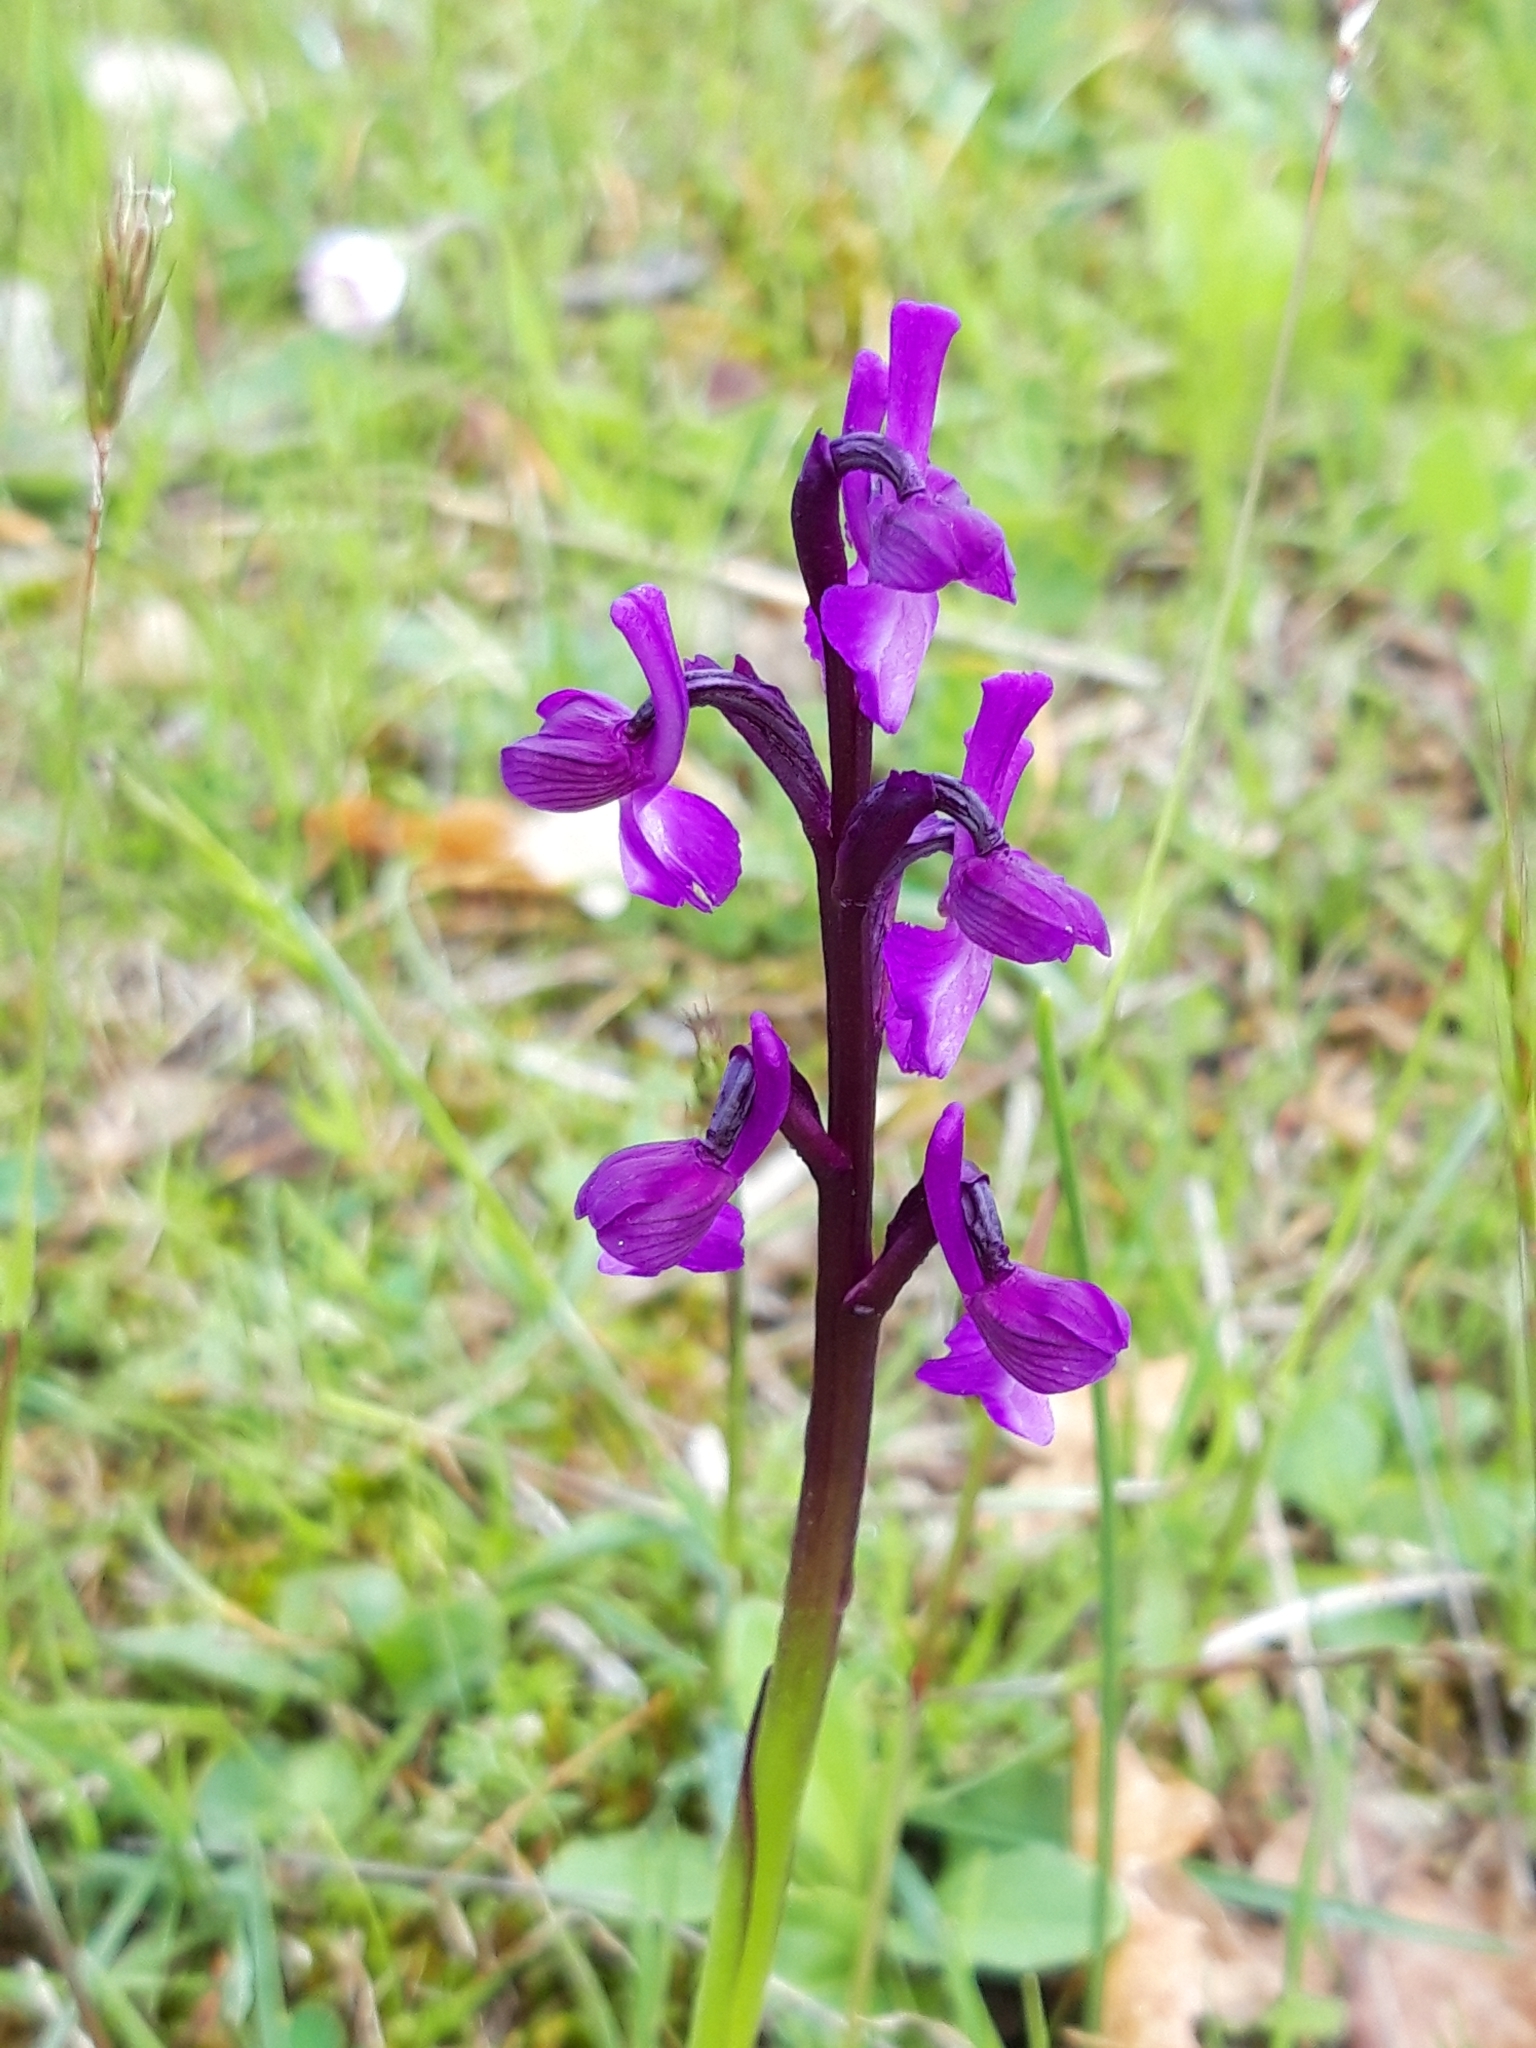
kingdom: Plantae
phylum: Tracheophyta
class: Liliopsida
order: Asparagales
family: Orchidaceae
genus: Anacamptis
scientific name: Anacamptis morio
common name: Green-winged orchid
